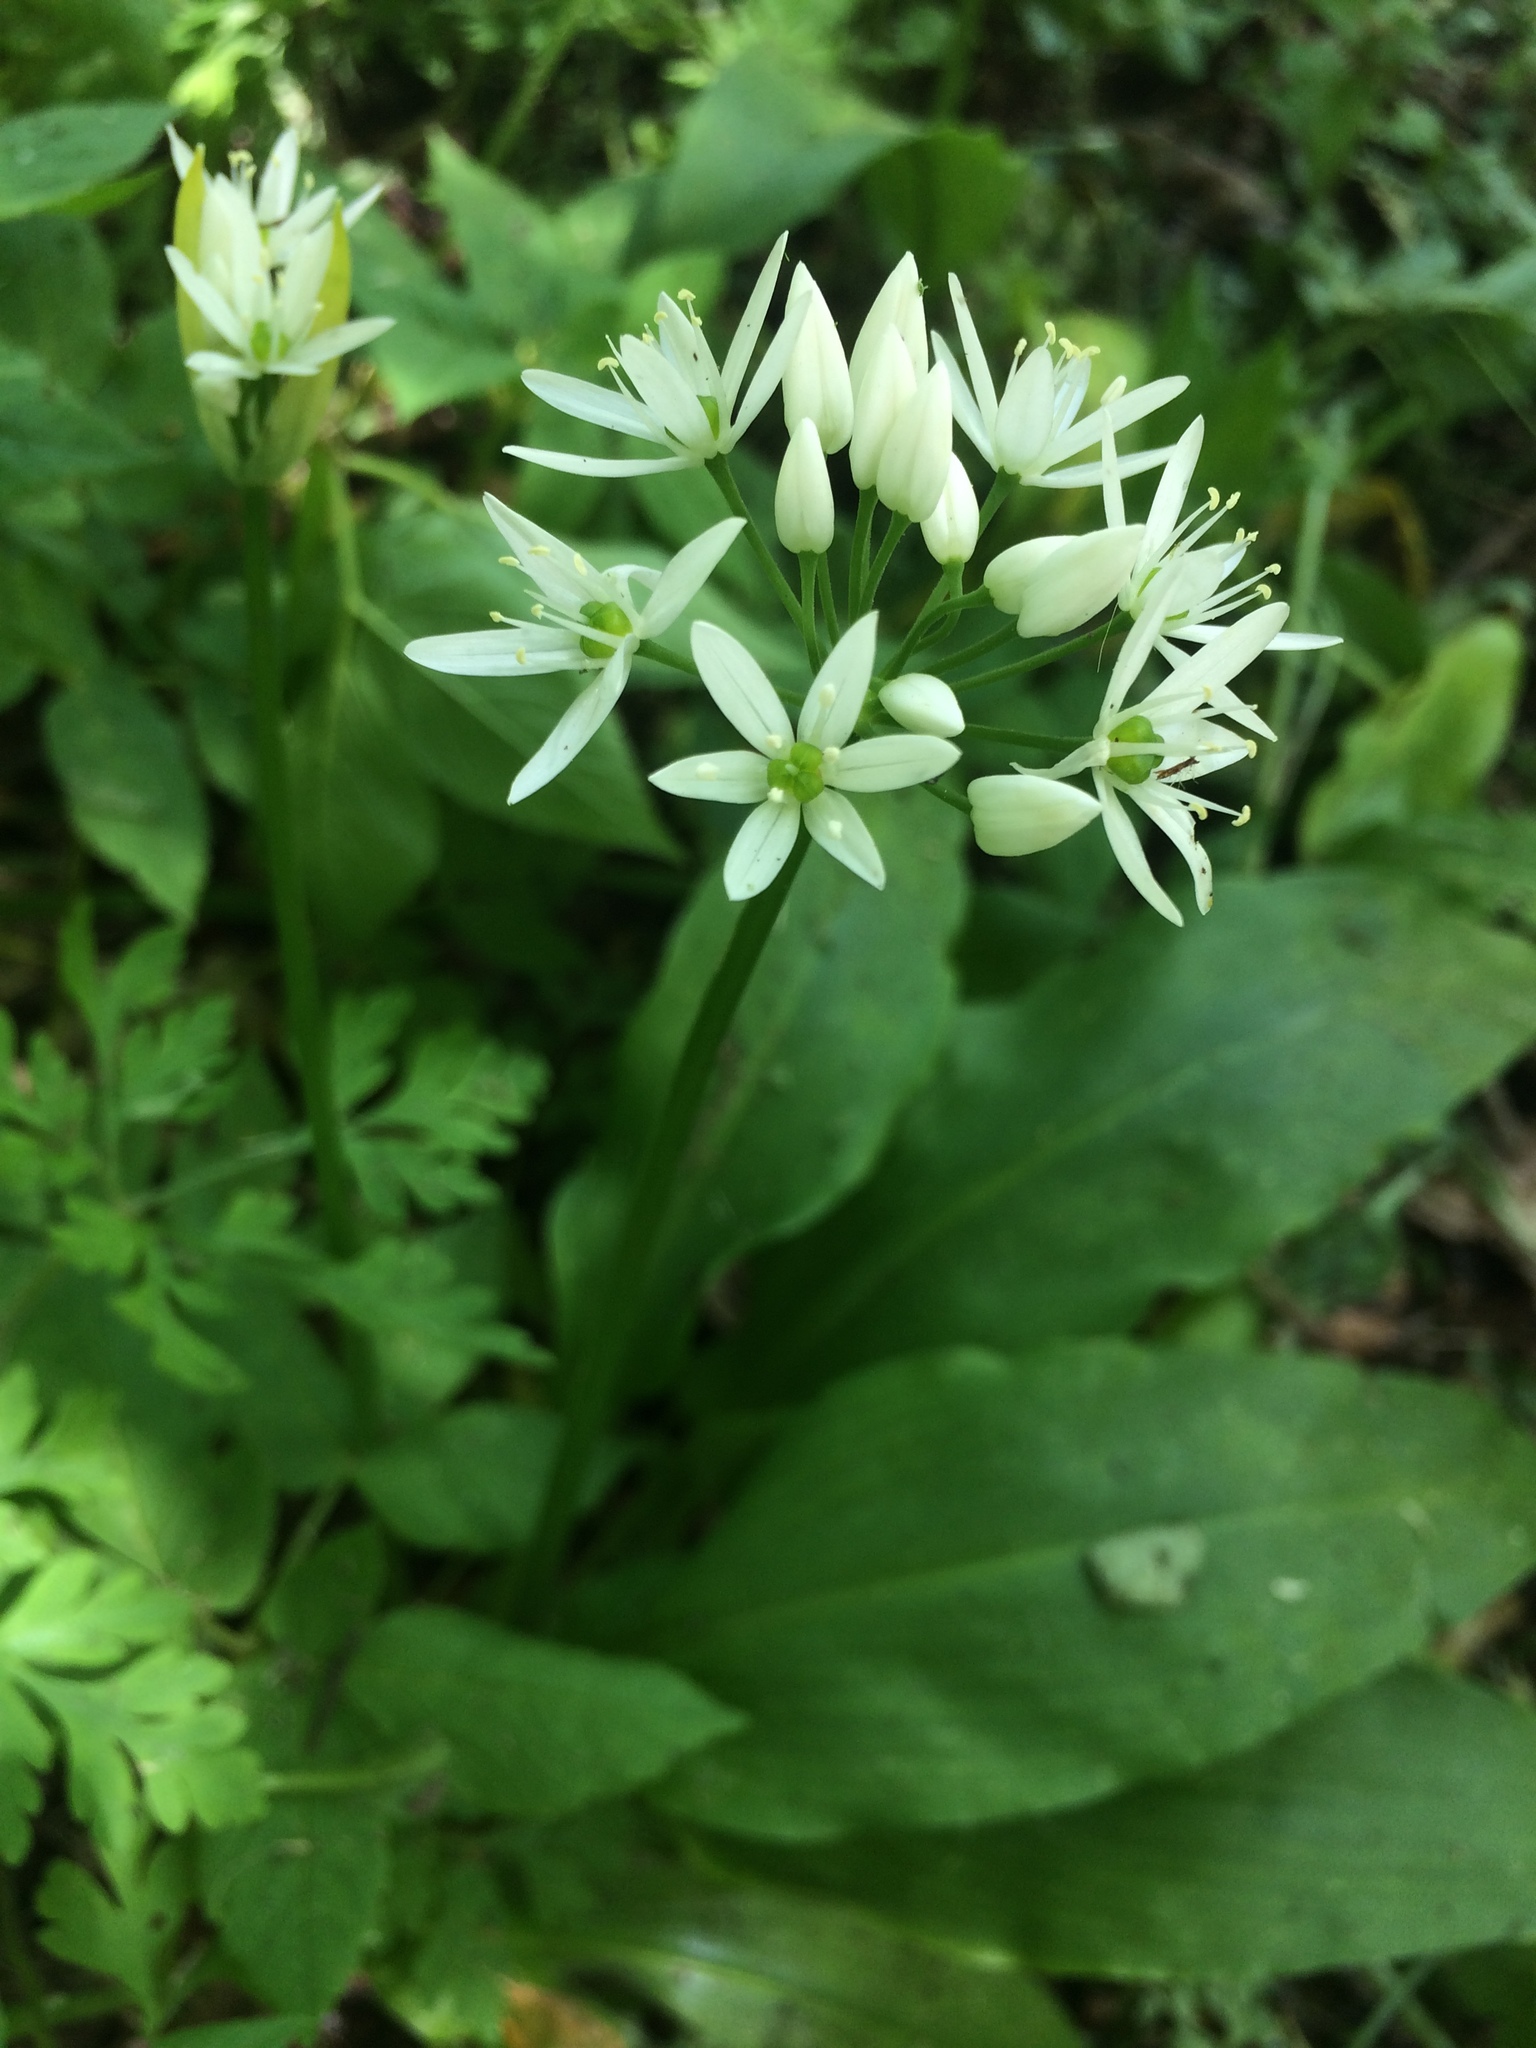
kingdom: Plantae
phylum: Tracheophyta
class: Liliopsida
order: Asparagales
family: Amaryllidaceae
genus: Allium
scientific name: Allium ursinum
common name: Ramsons
